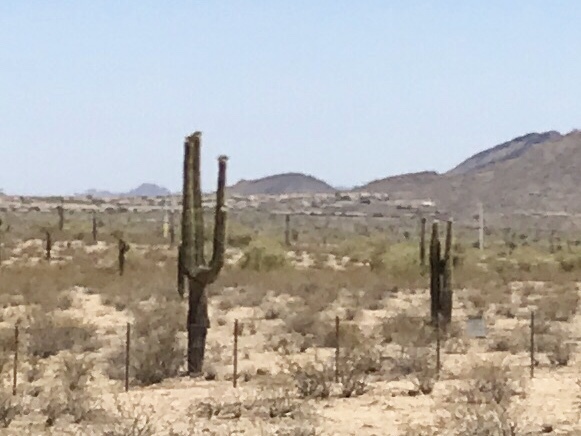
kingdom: Plantae
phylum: Tracheophyta
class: Magnoliopsida
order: Caryophyllales
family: Cactaceae
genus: Carnegiea
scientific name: Carnegiea gigantea
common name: Saguaro
